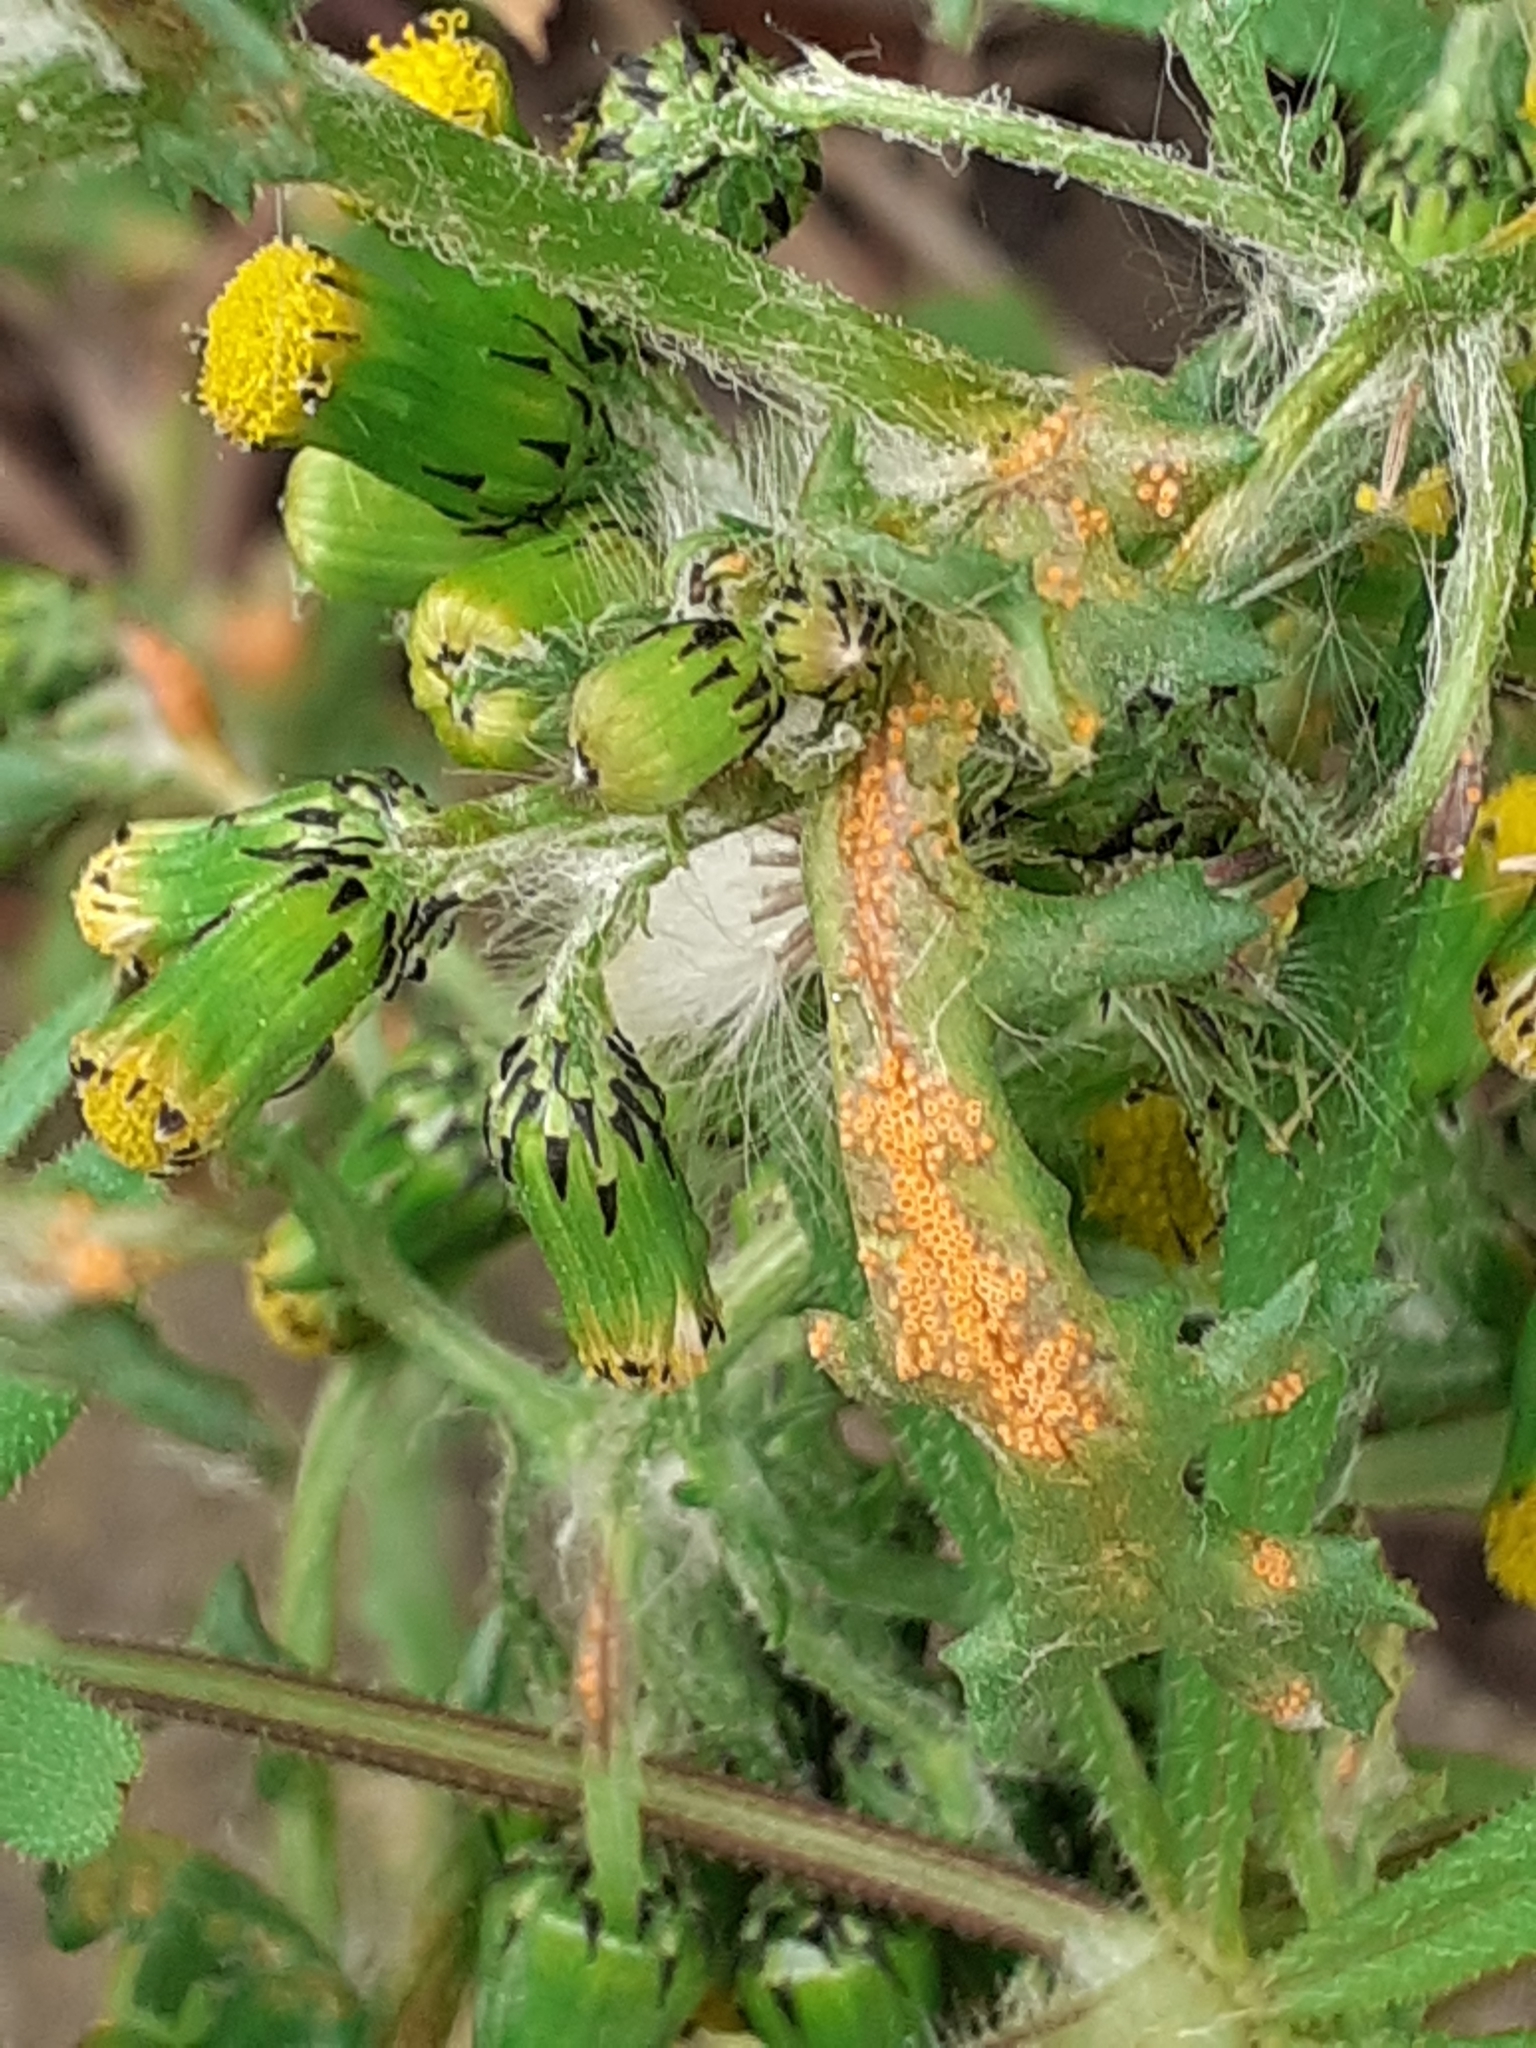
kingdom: Fungi
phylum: Basidiomycota
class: Pucciniomycetes
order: Pucciniales
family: Pucciniaceae
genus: Puccinia
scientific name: Puccinia lagenophorae
